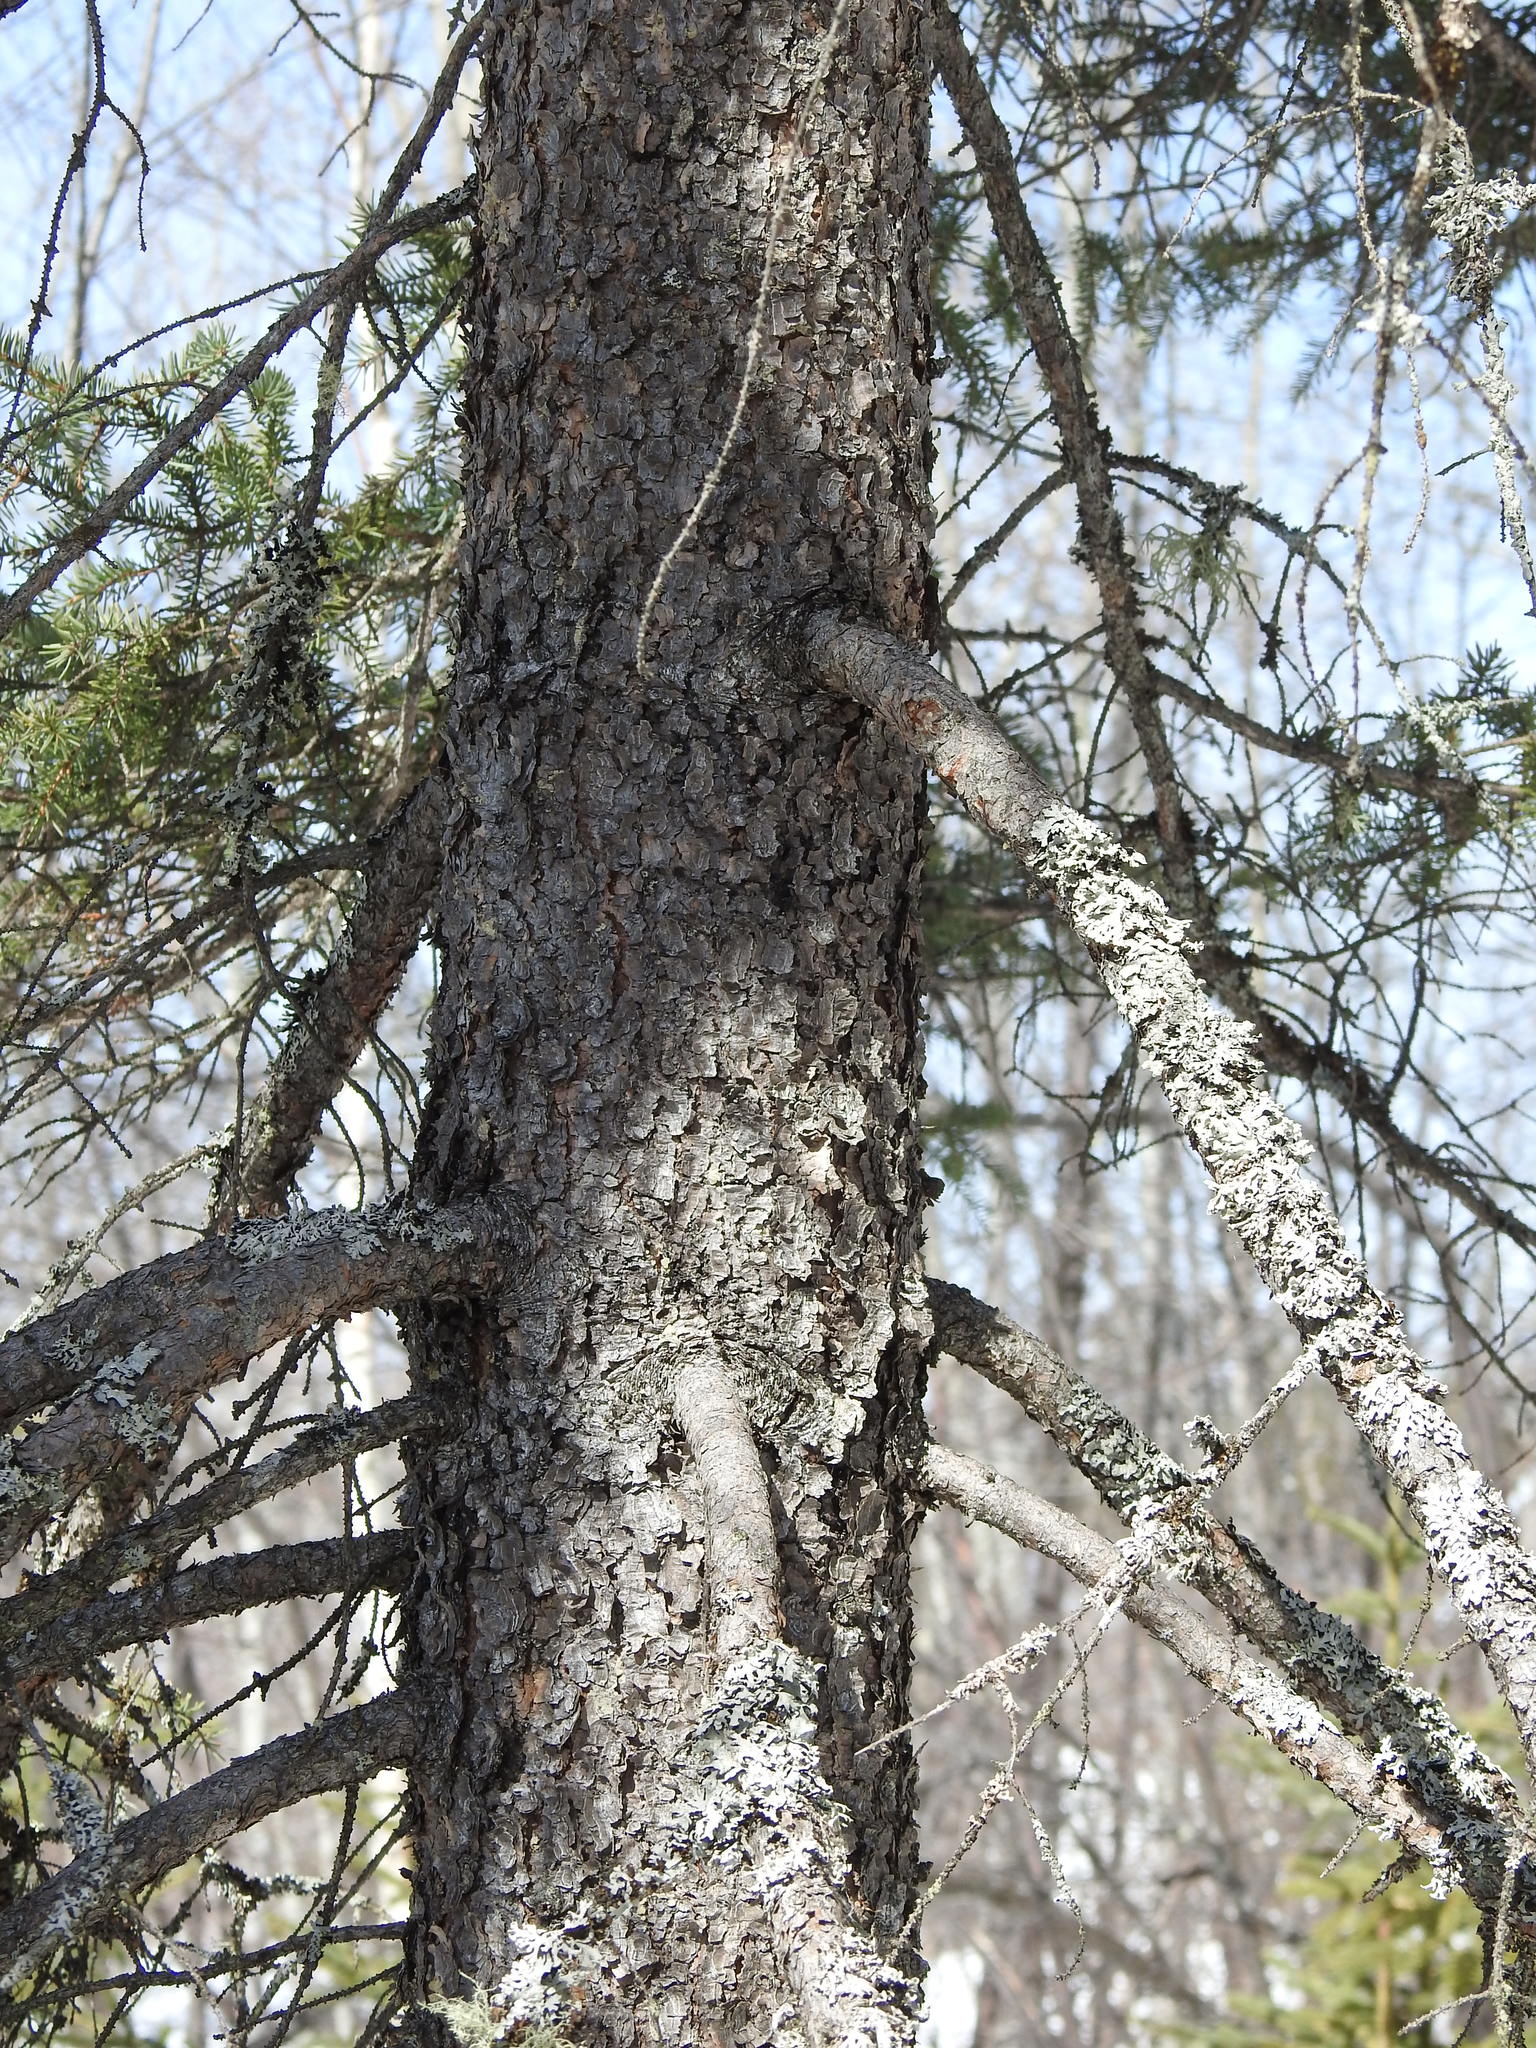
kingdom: Plantae
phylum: Tracheophyta
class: Pinopsida
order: Pinales
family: Pinaceae
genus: Picea
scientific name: Picea mariana
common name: Black spruce
